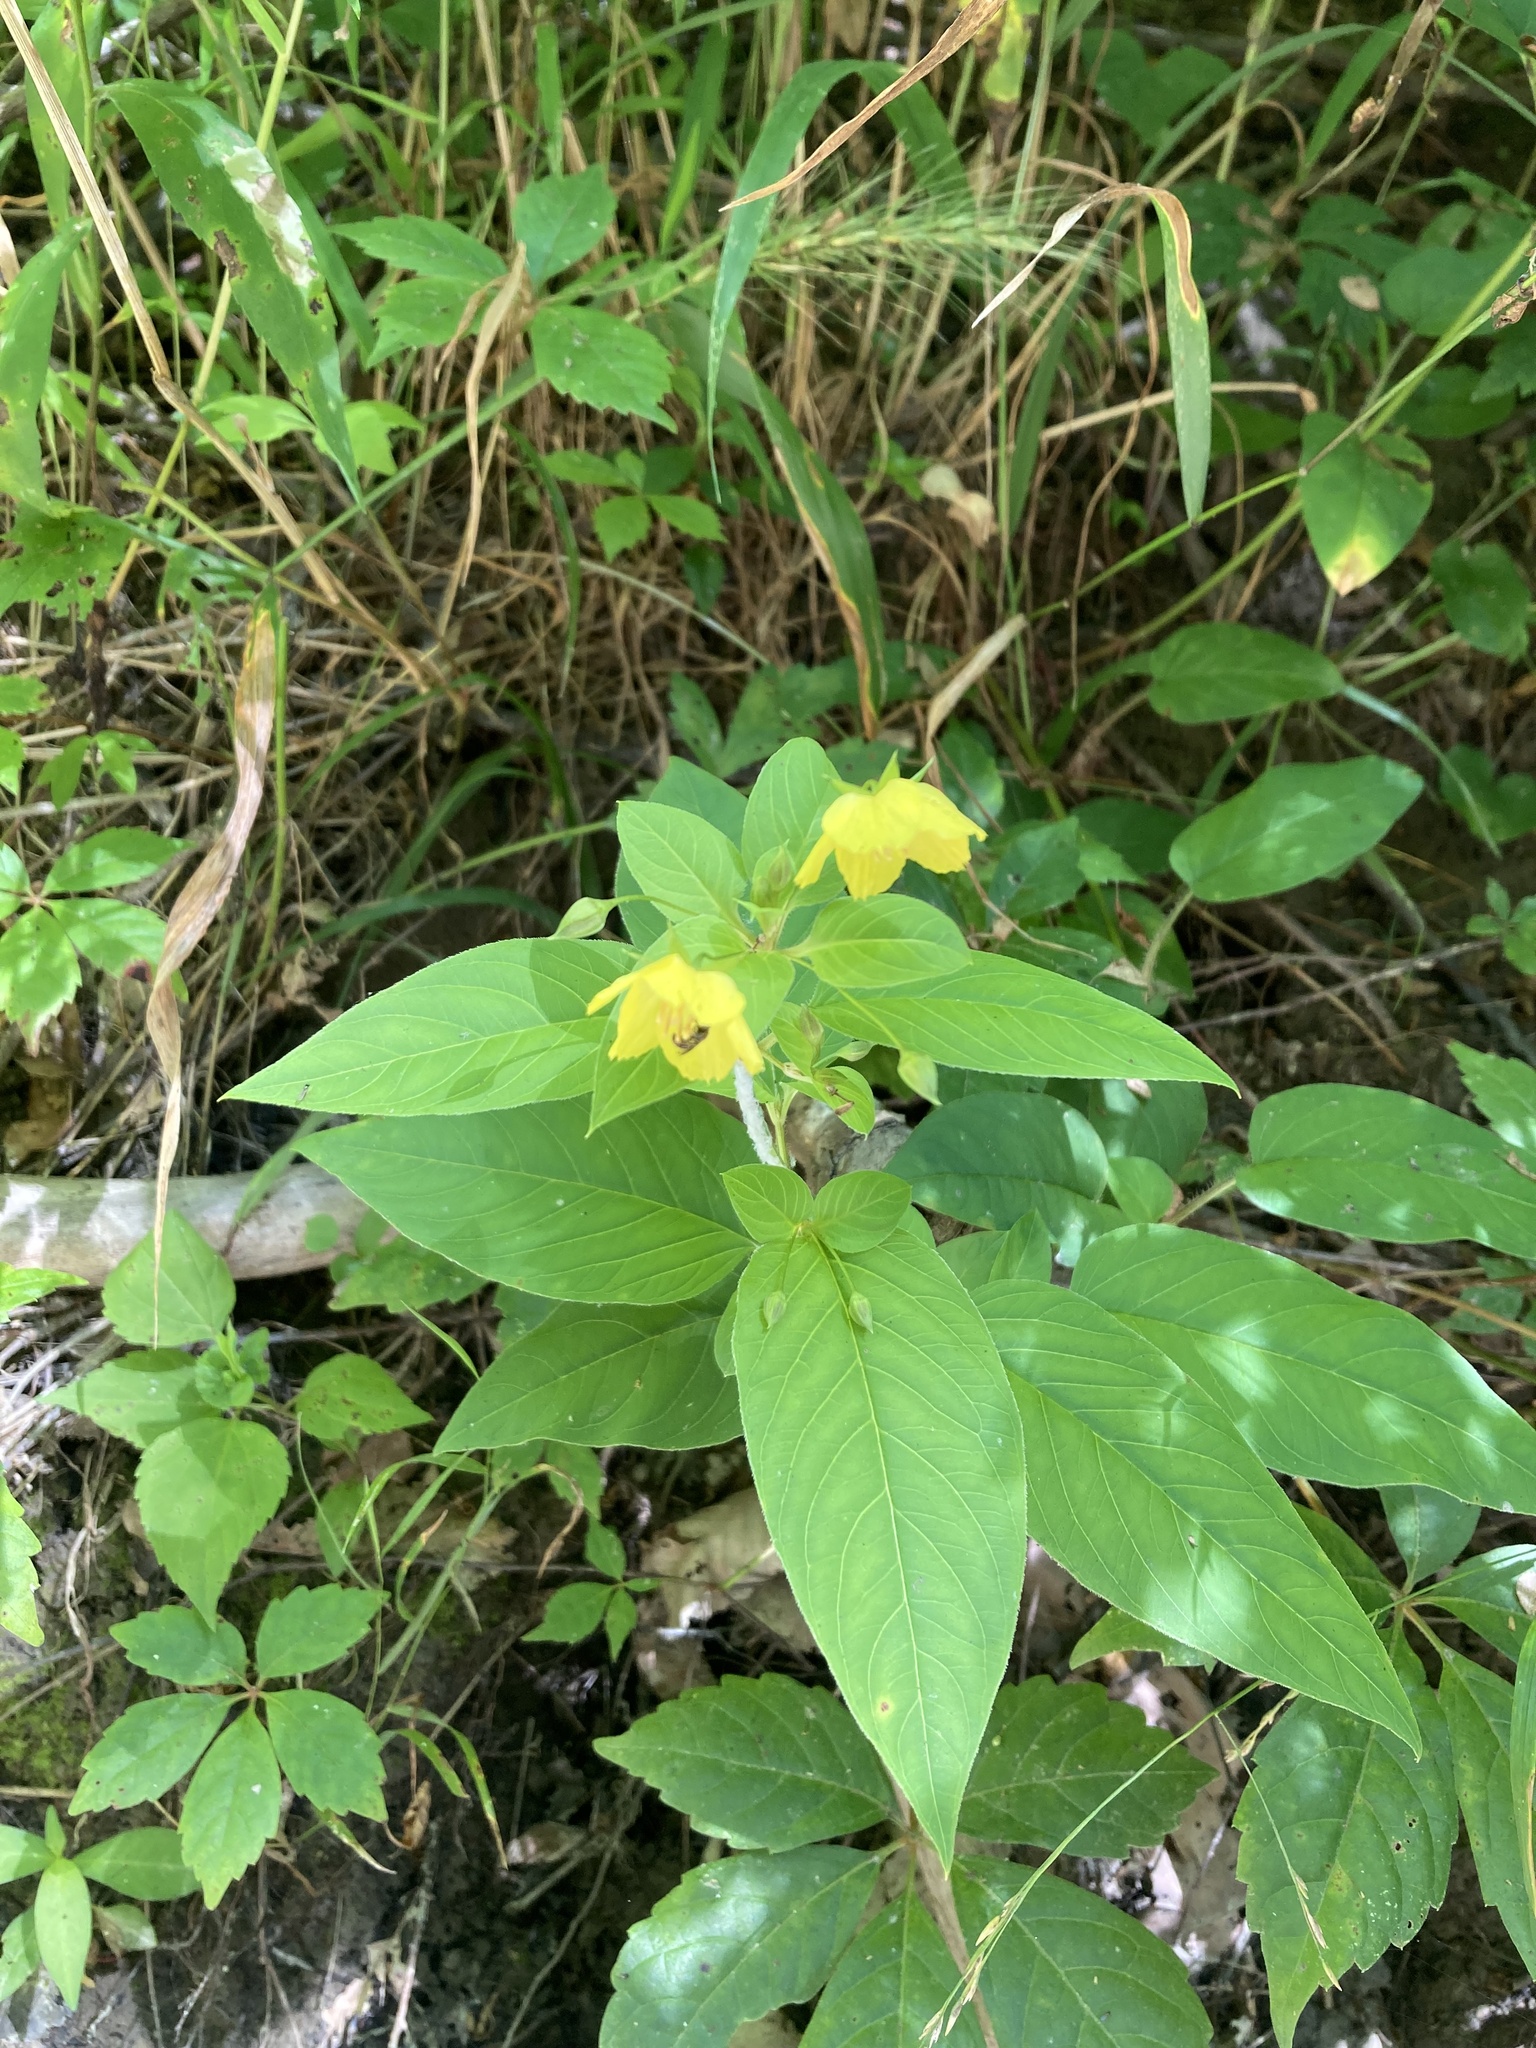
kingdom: Plantae
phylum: Tracheophyta
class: Magnoliopsida
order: Ericales
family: Primulaceae
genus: Lysimachia
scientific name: Lysimachia ciliata
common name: Fringed loosestrife
